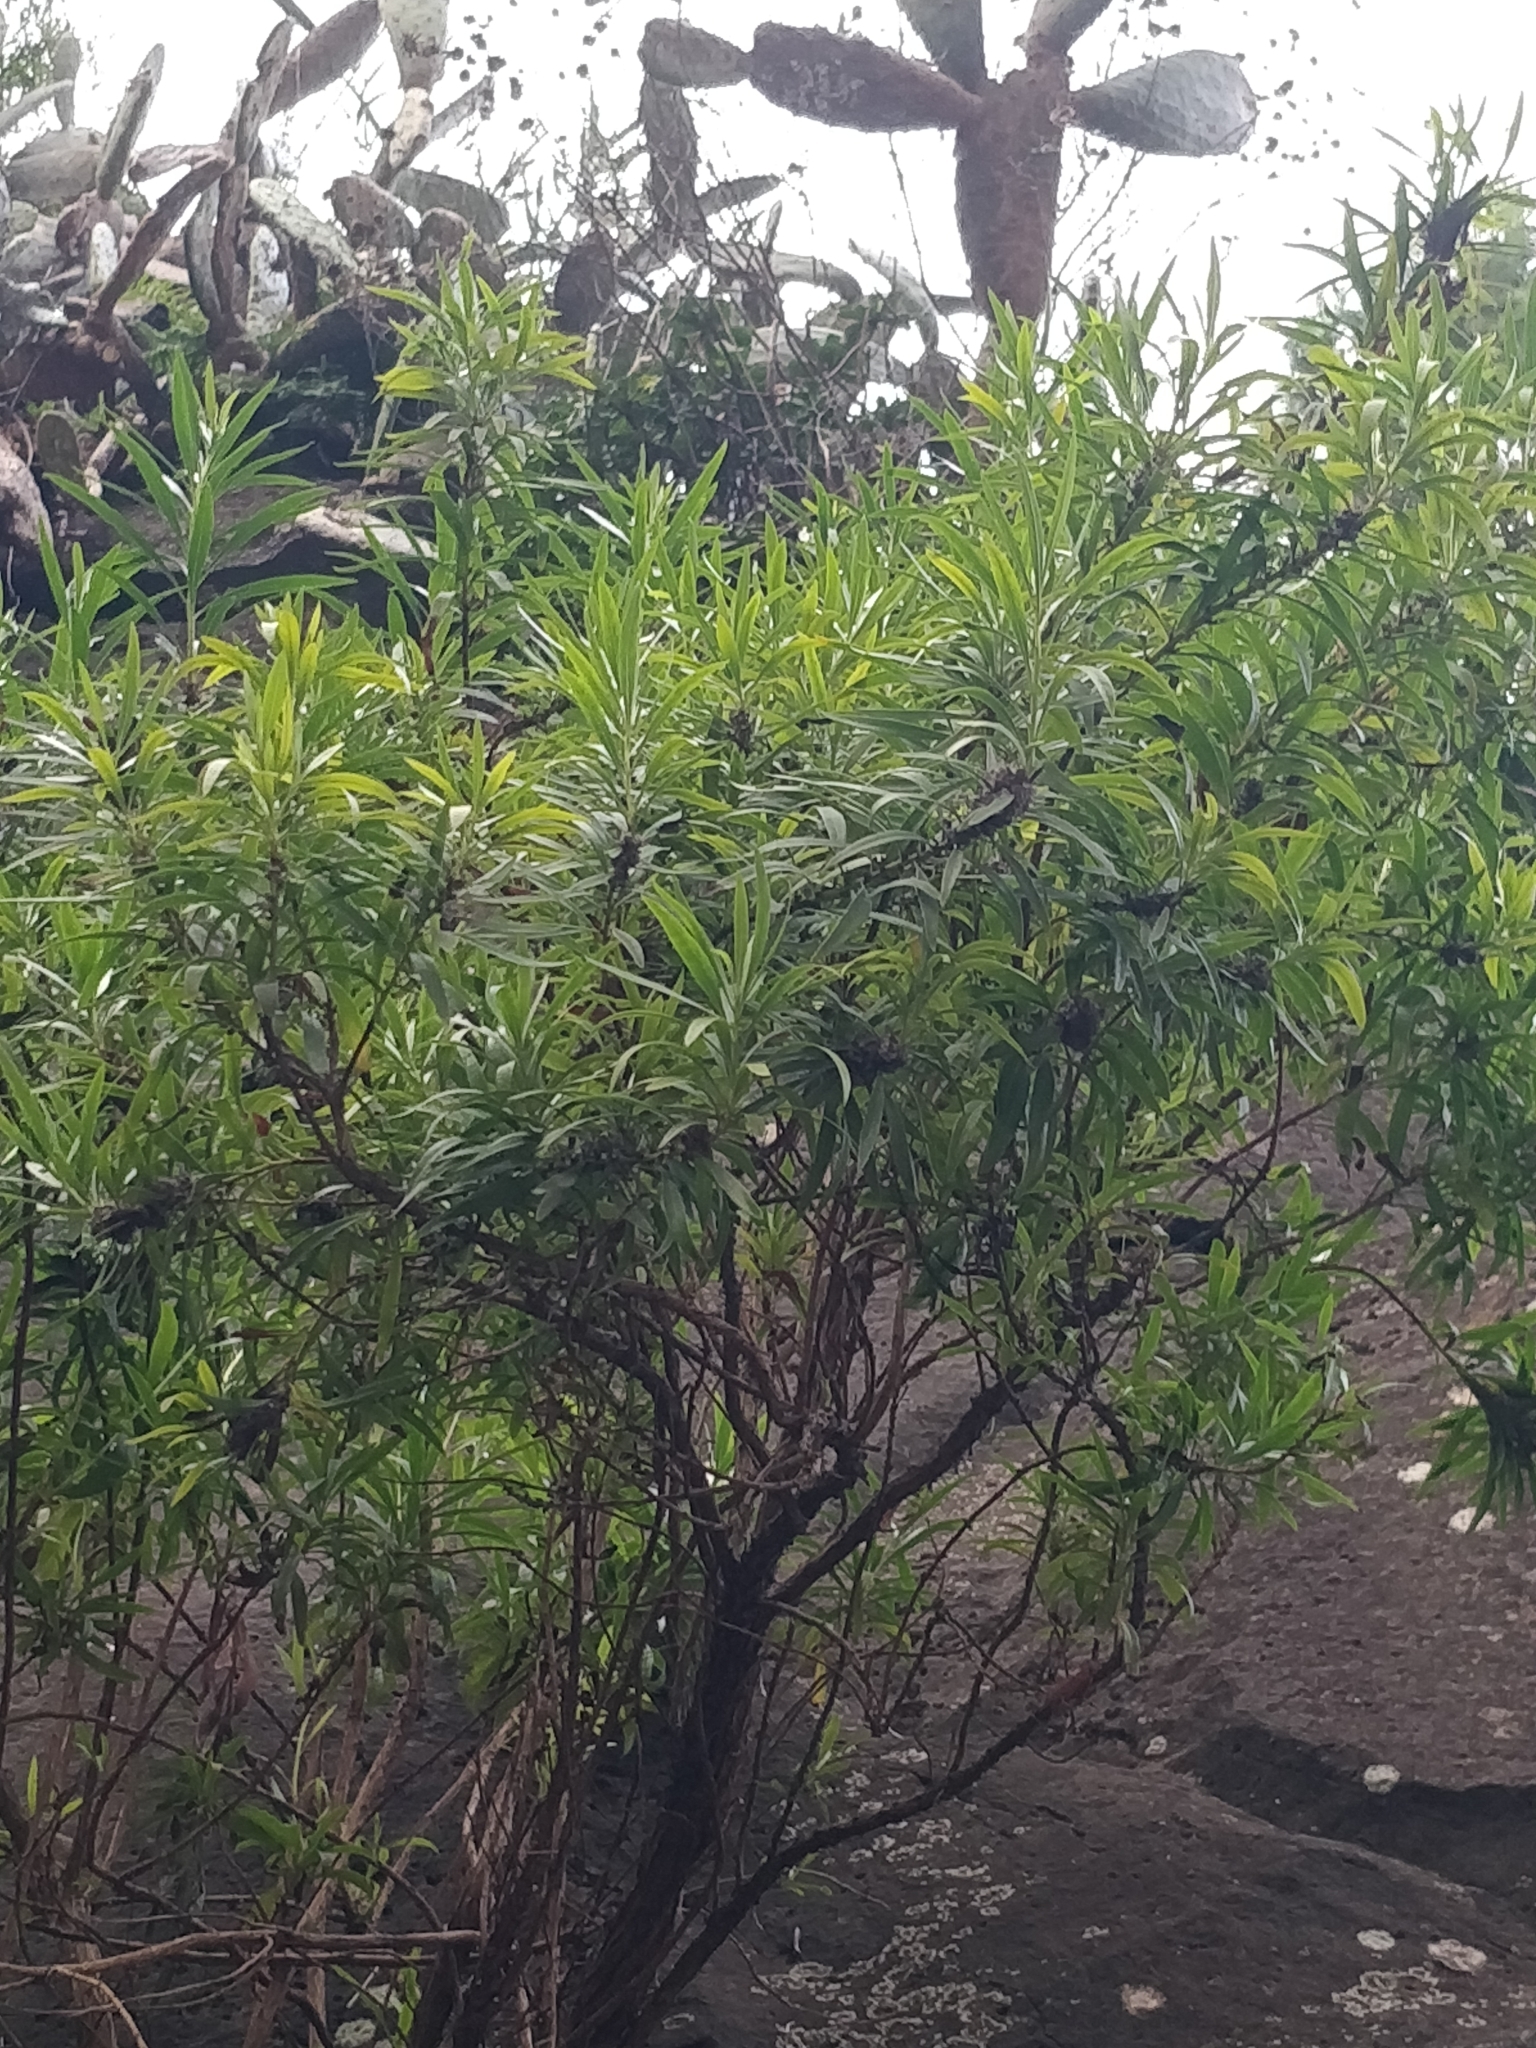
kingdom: Plantae
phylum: Tracheophyta
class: Magnoliopsida
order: Lamiales
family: Plantaginaceae
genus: Globularia
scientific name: Globularia salicina
